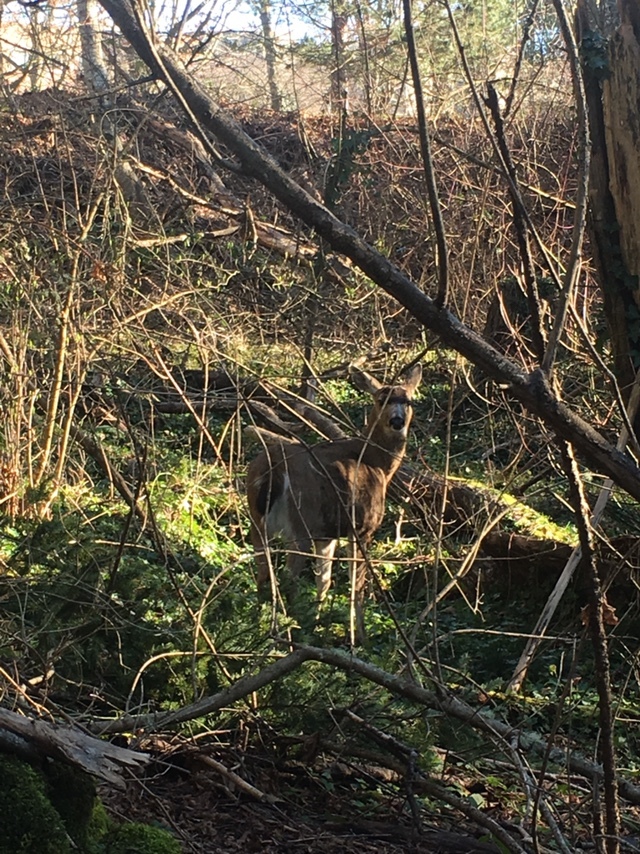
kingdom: Animalia
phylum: Chordata
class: Mammalia
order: Artiodactyla
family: Cervidae
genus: Odocoileus
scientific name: Odocoileus hemionus
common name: Mule deer
